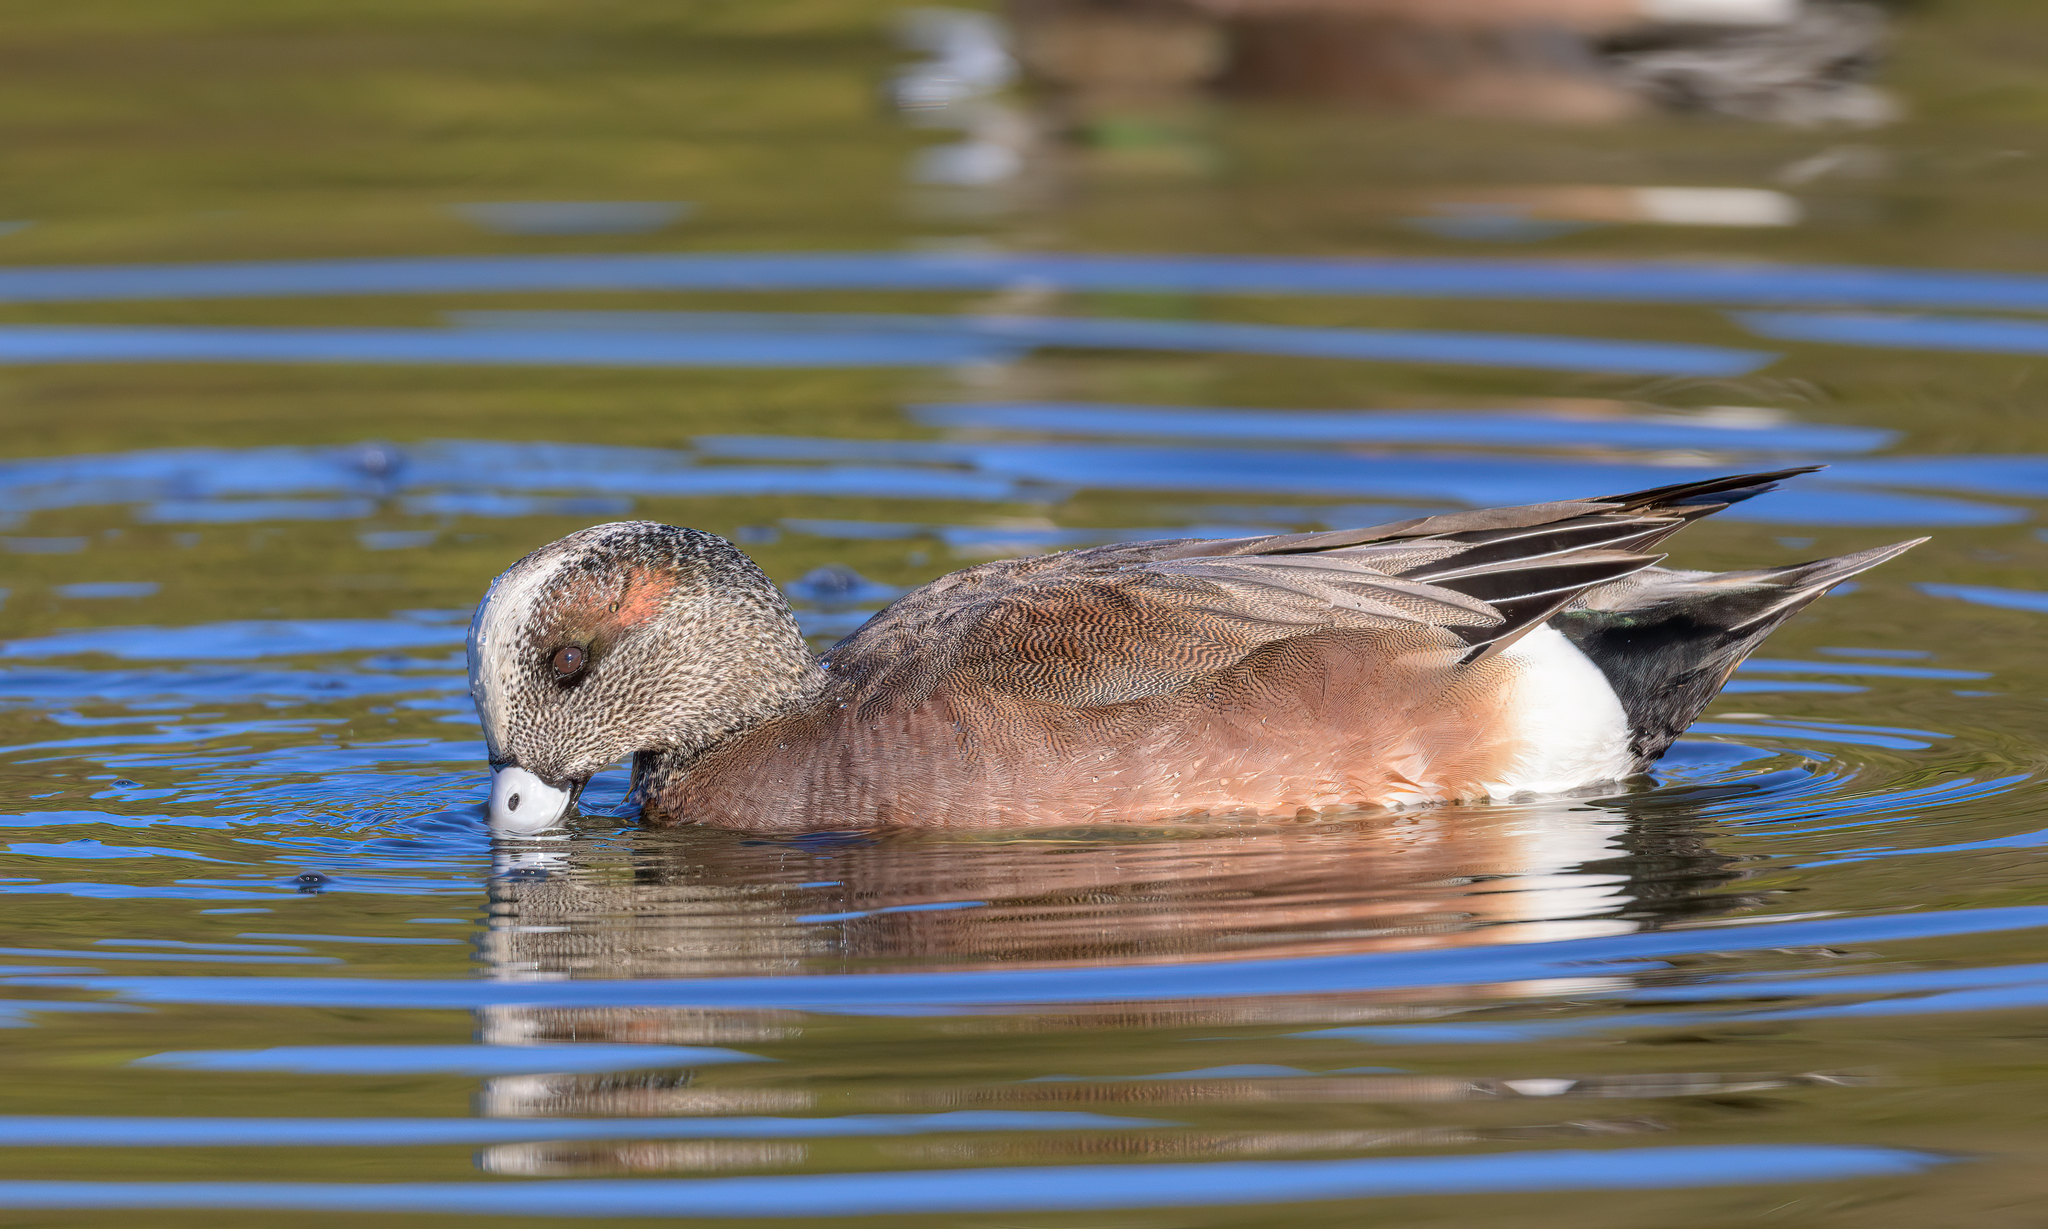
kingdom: Animalia
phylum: Chordata
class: Aves
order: Anseriformes
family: Anatidae
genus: Mareca
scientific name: Mareca americana
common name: American wigeon
